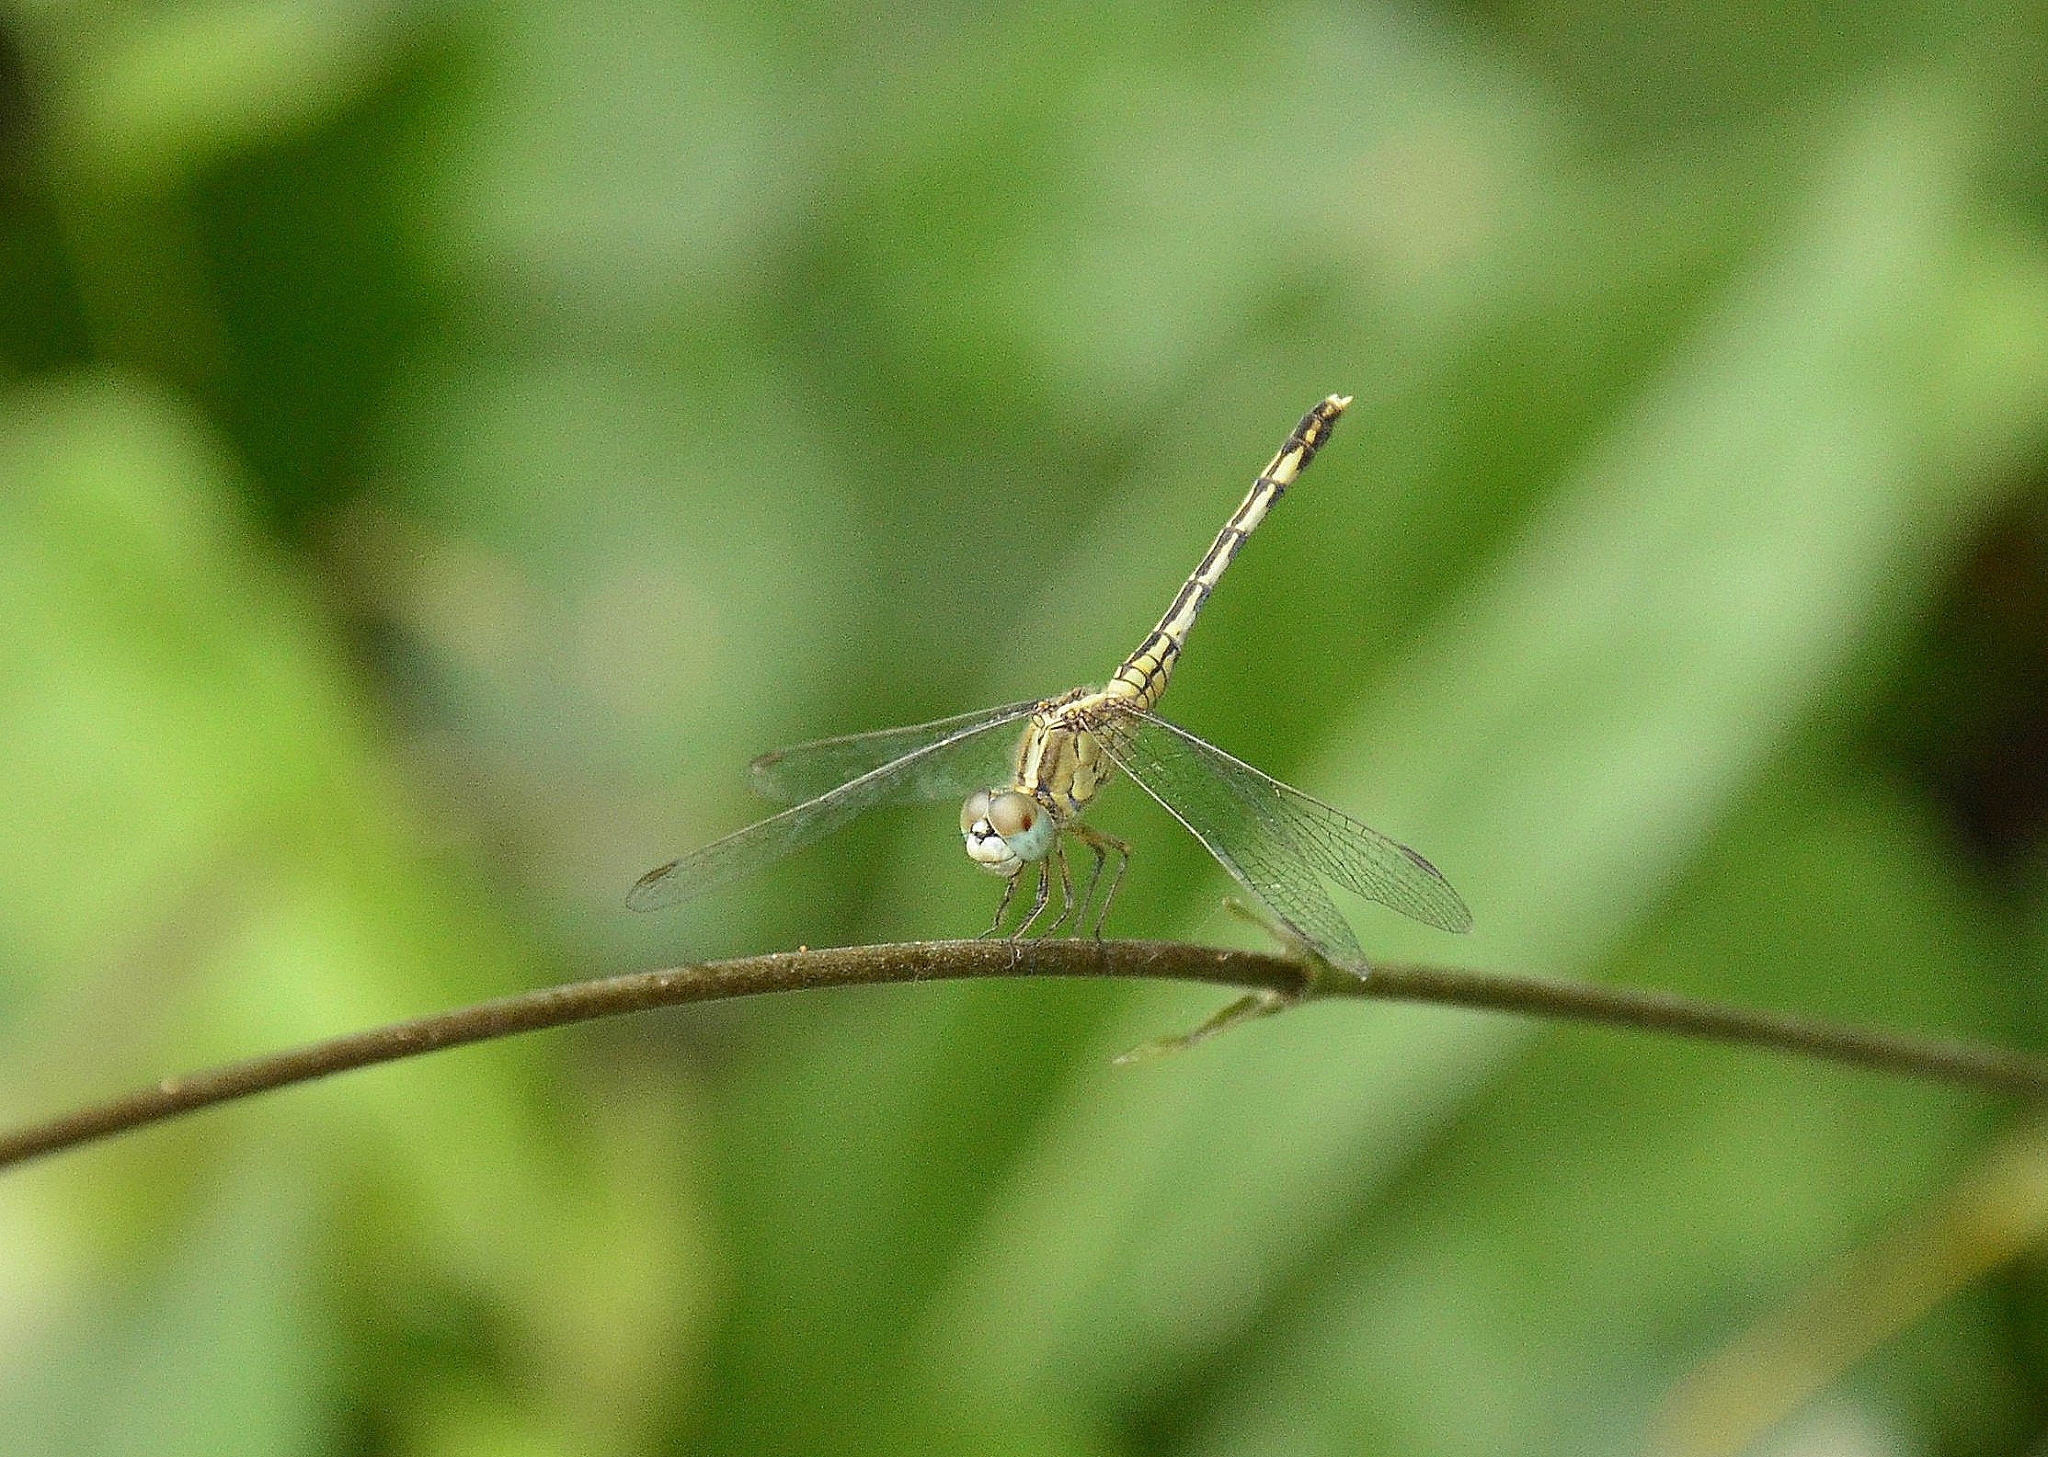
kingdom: Animalia
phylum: Arthropoda
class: Insecta
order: Odonata
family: Libellulidae
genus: Diplacodes
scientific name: Diplacodes trivialis
